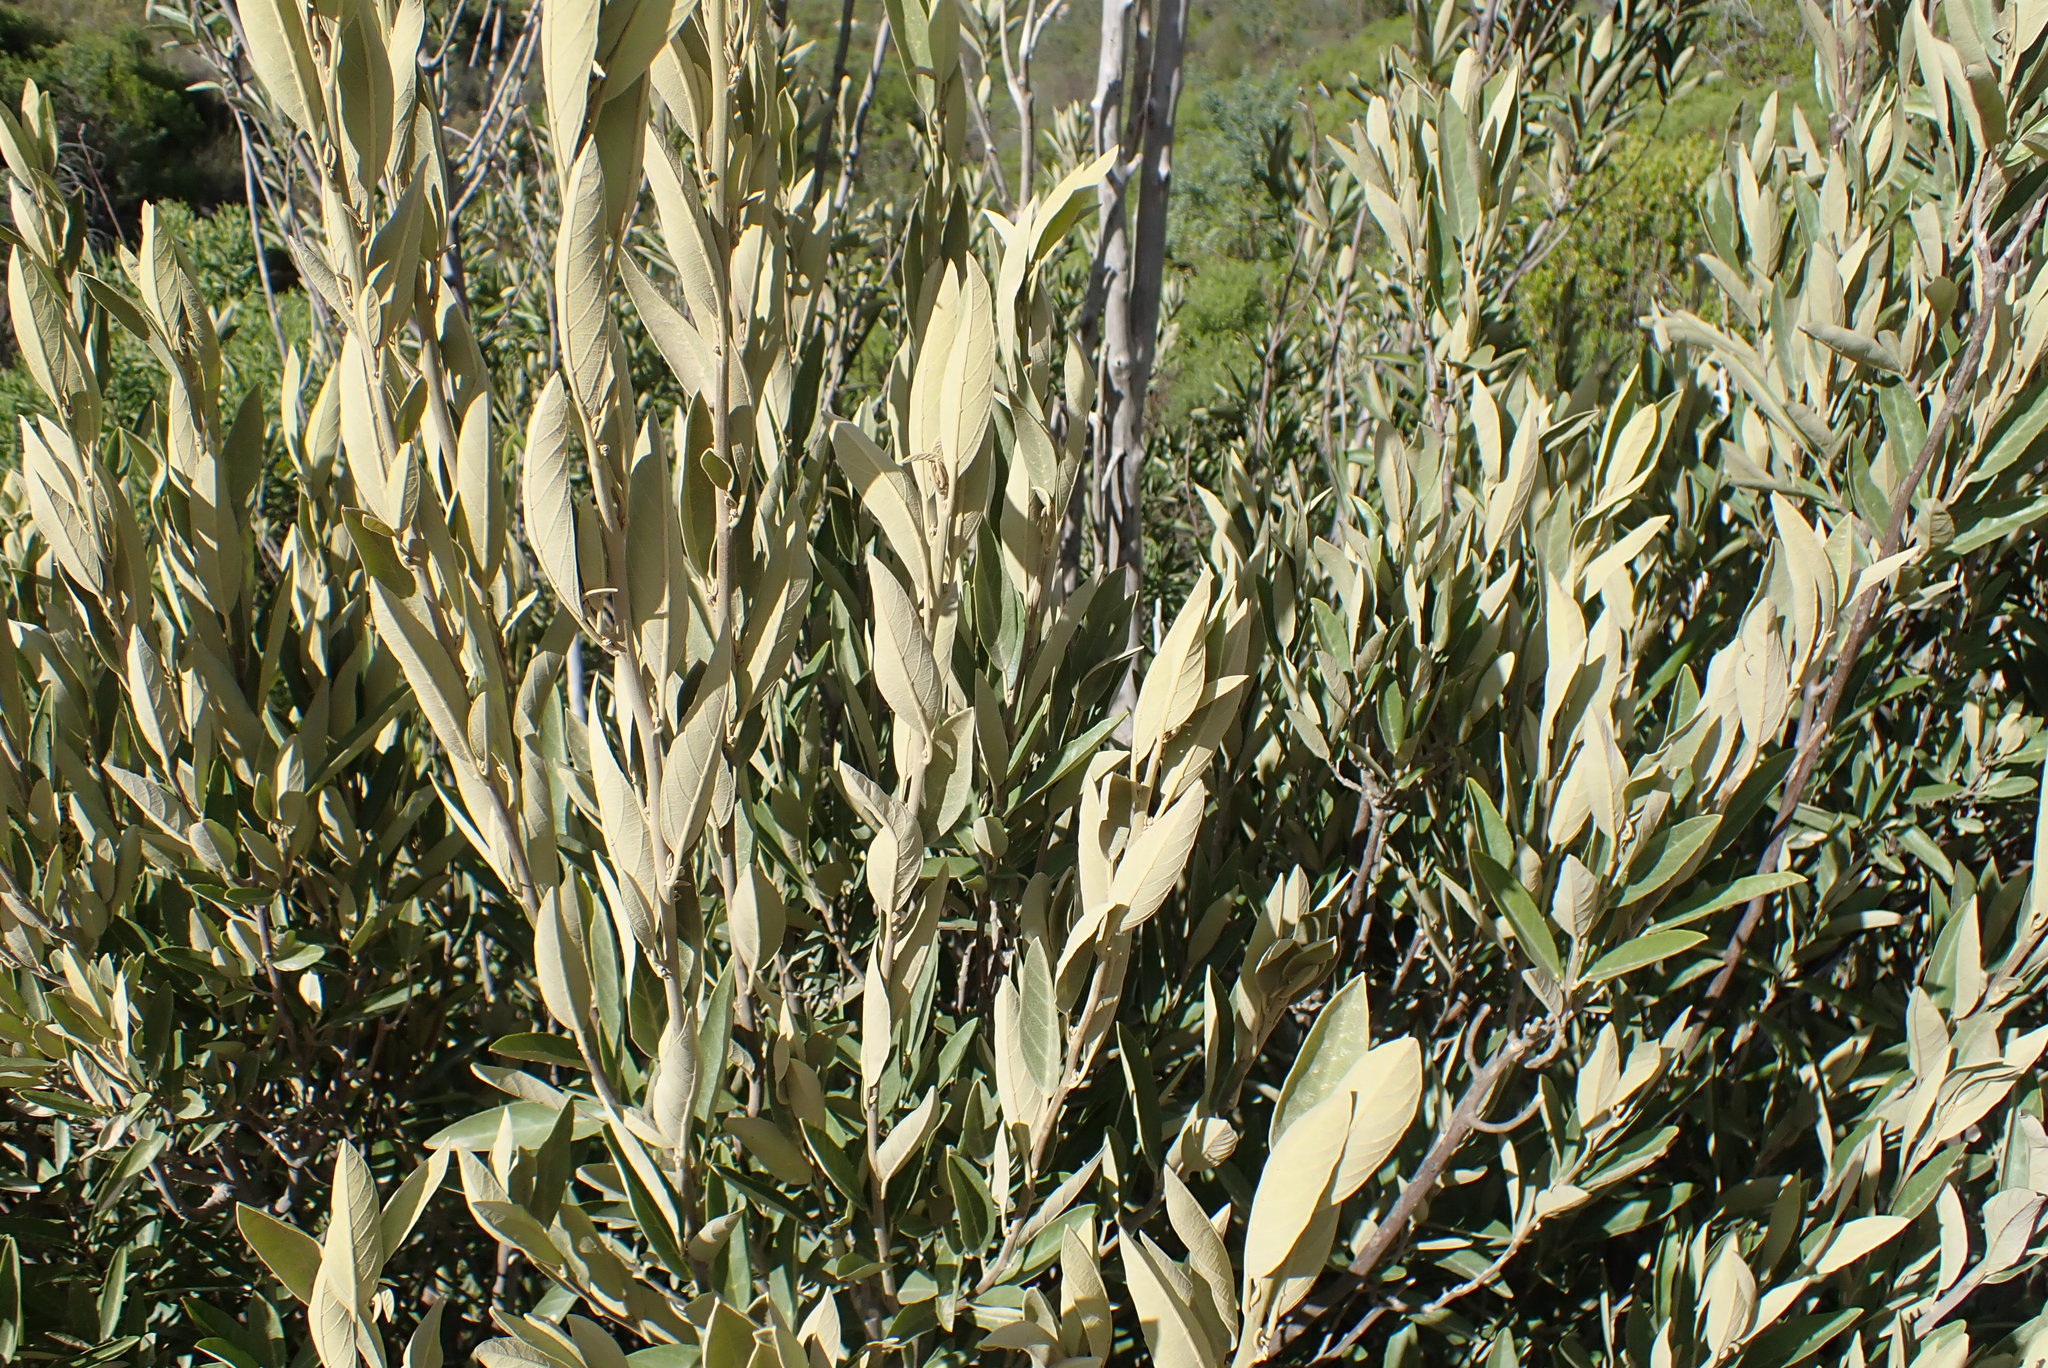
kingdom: Plantae
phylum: Tracheophyta
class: Magnoliopsida
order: Malpighiales
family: Achariaceae
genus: Kiggelaria
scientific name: Kiggelaria africana
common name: Wild peach
